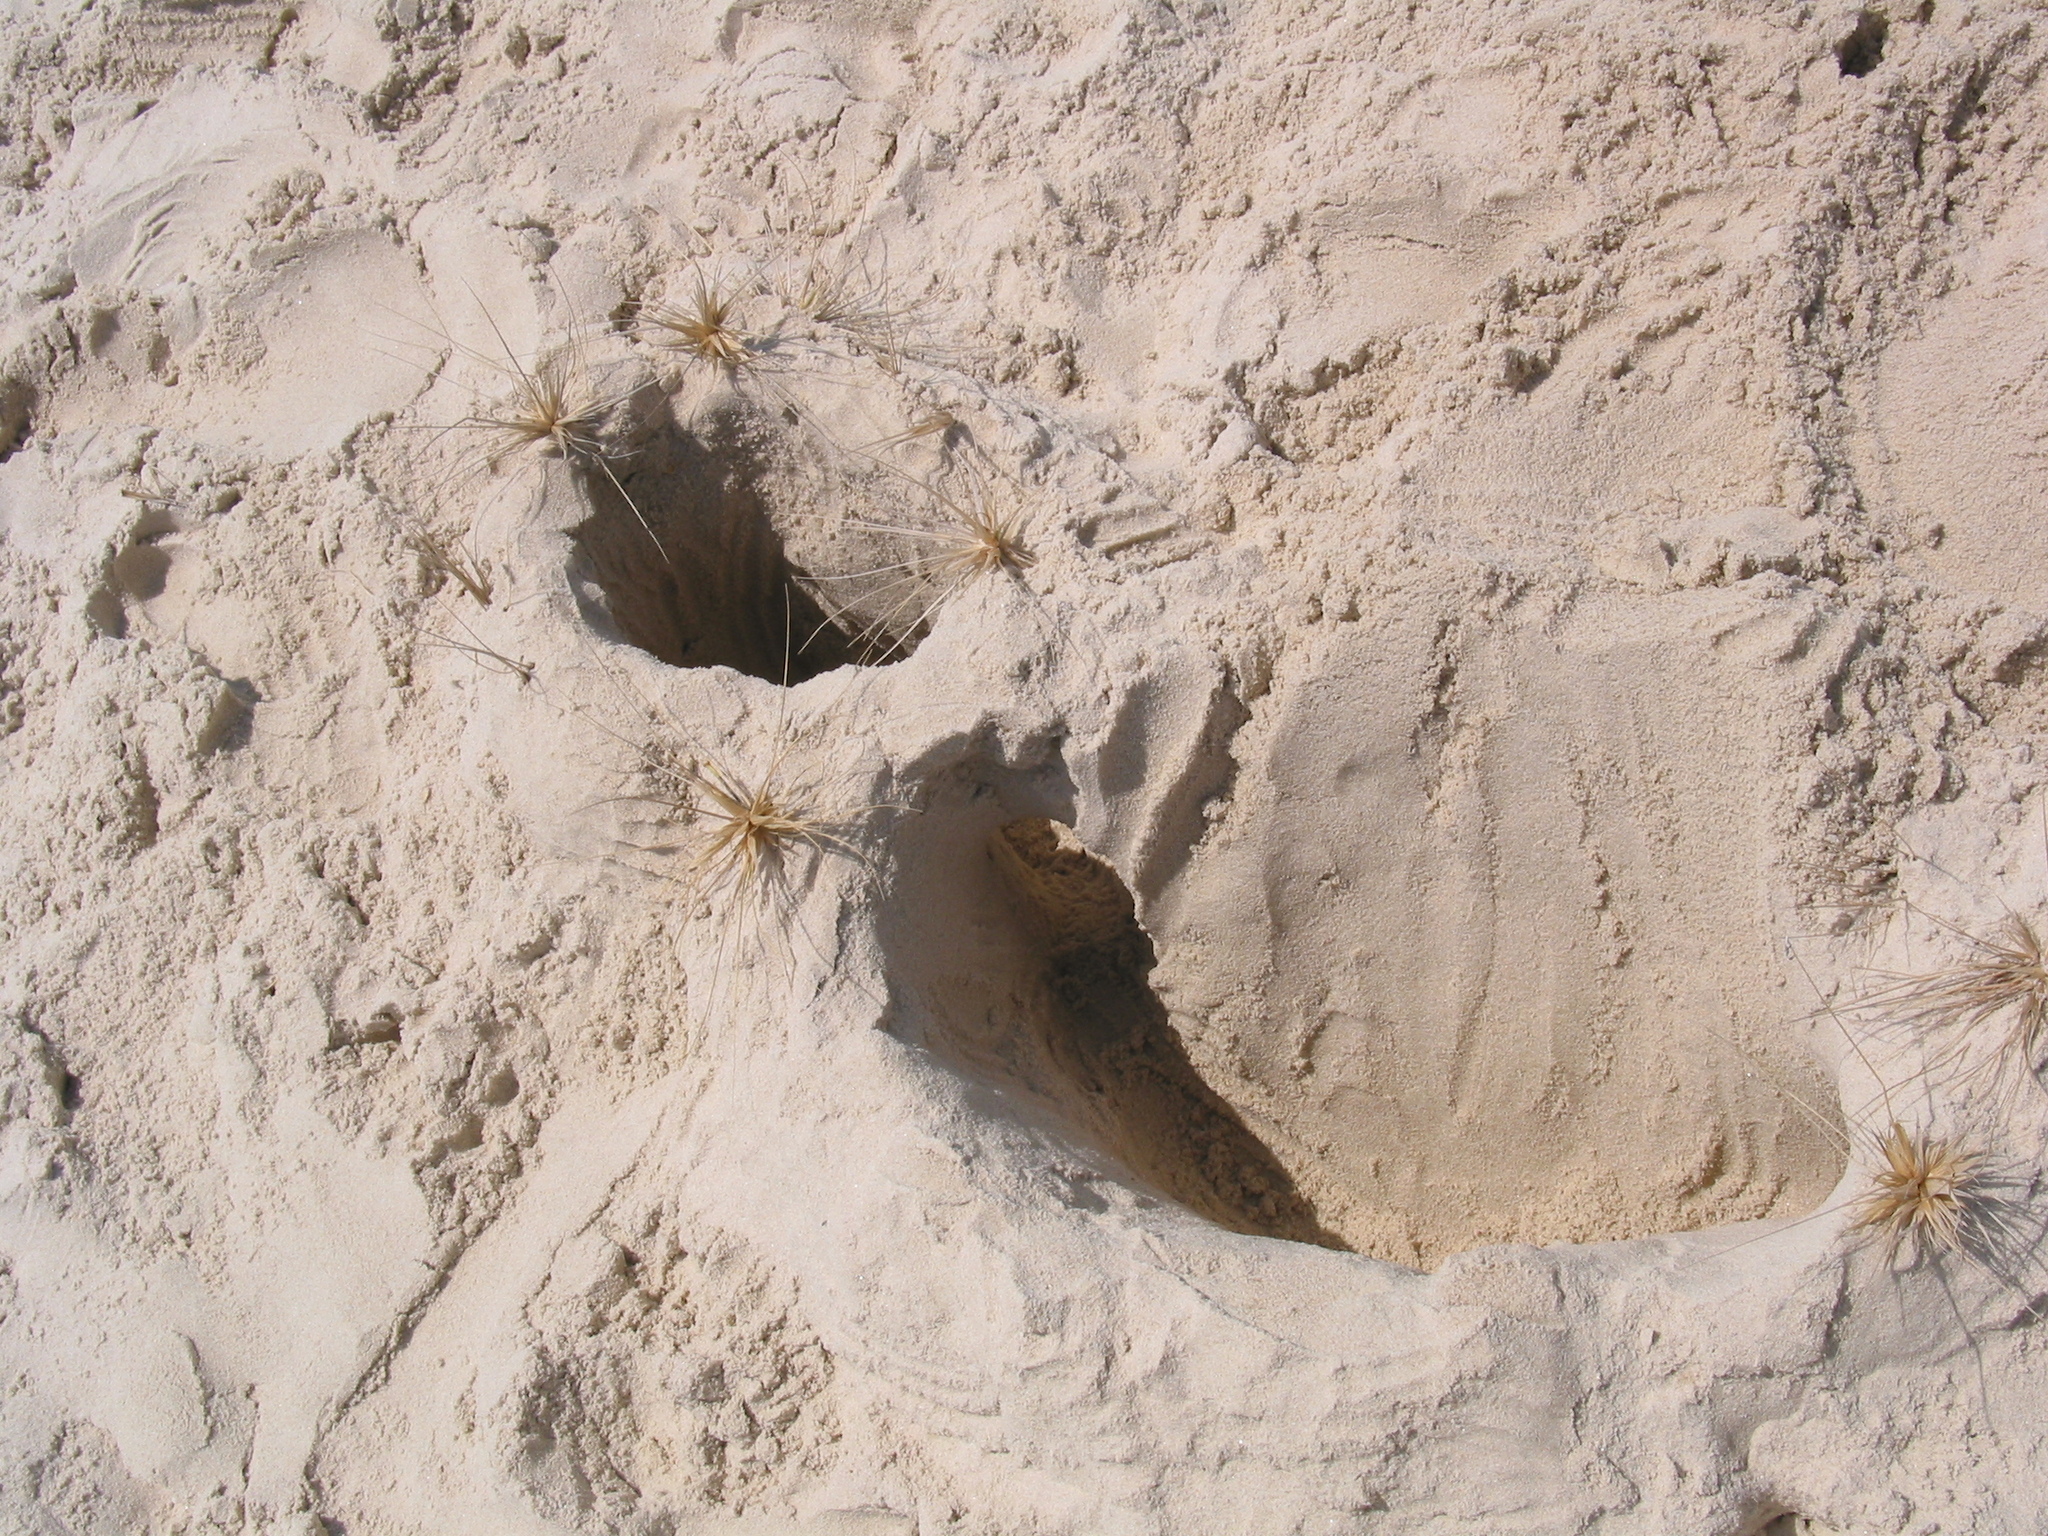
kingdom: Plantae
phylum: Tracheophyta
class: Liliopsida
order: Poales
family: Poaceae
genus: Spinifex
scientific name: Spinifex sericeus
